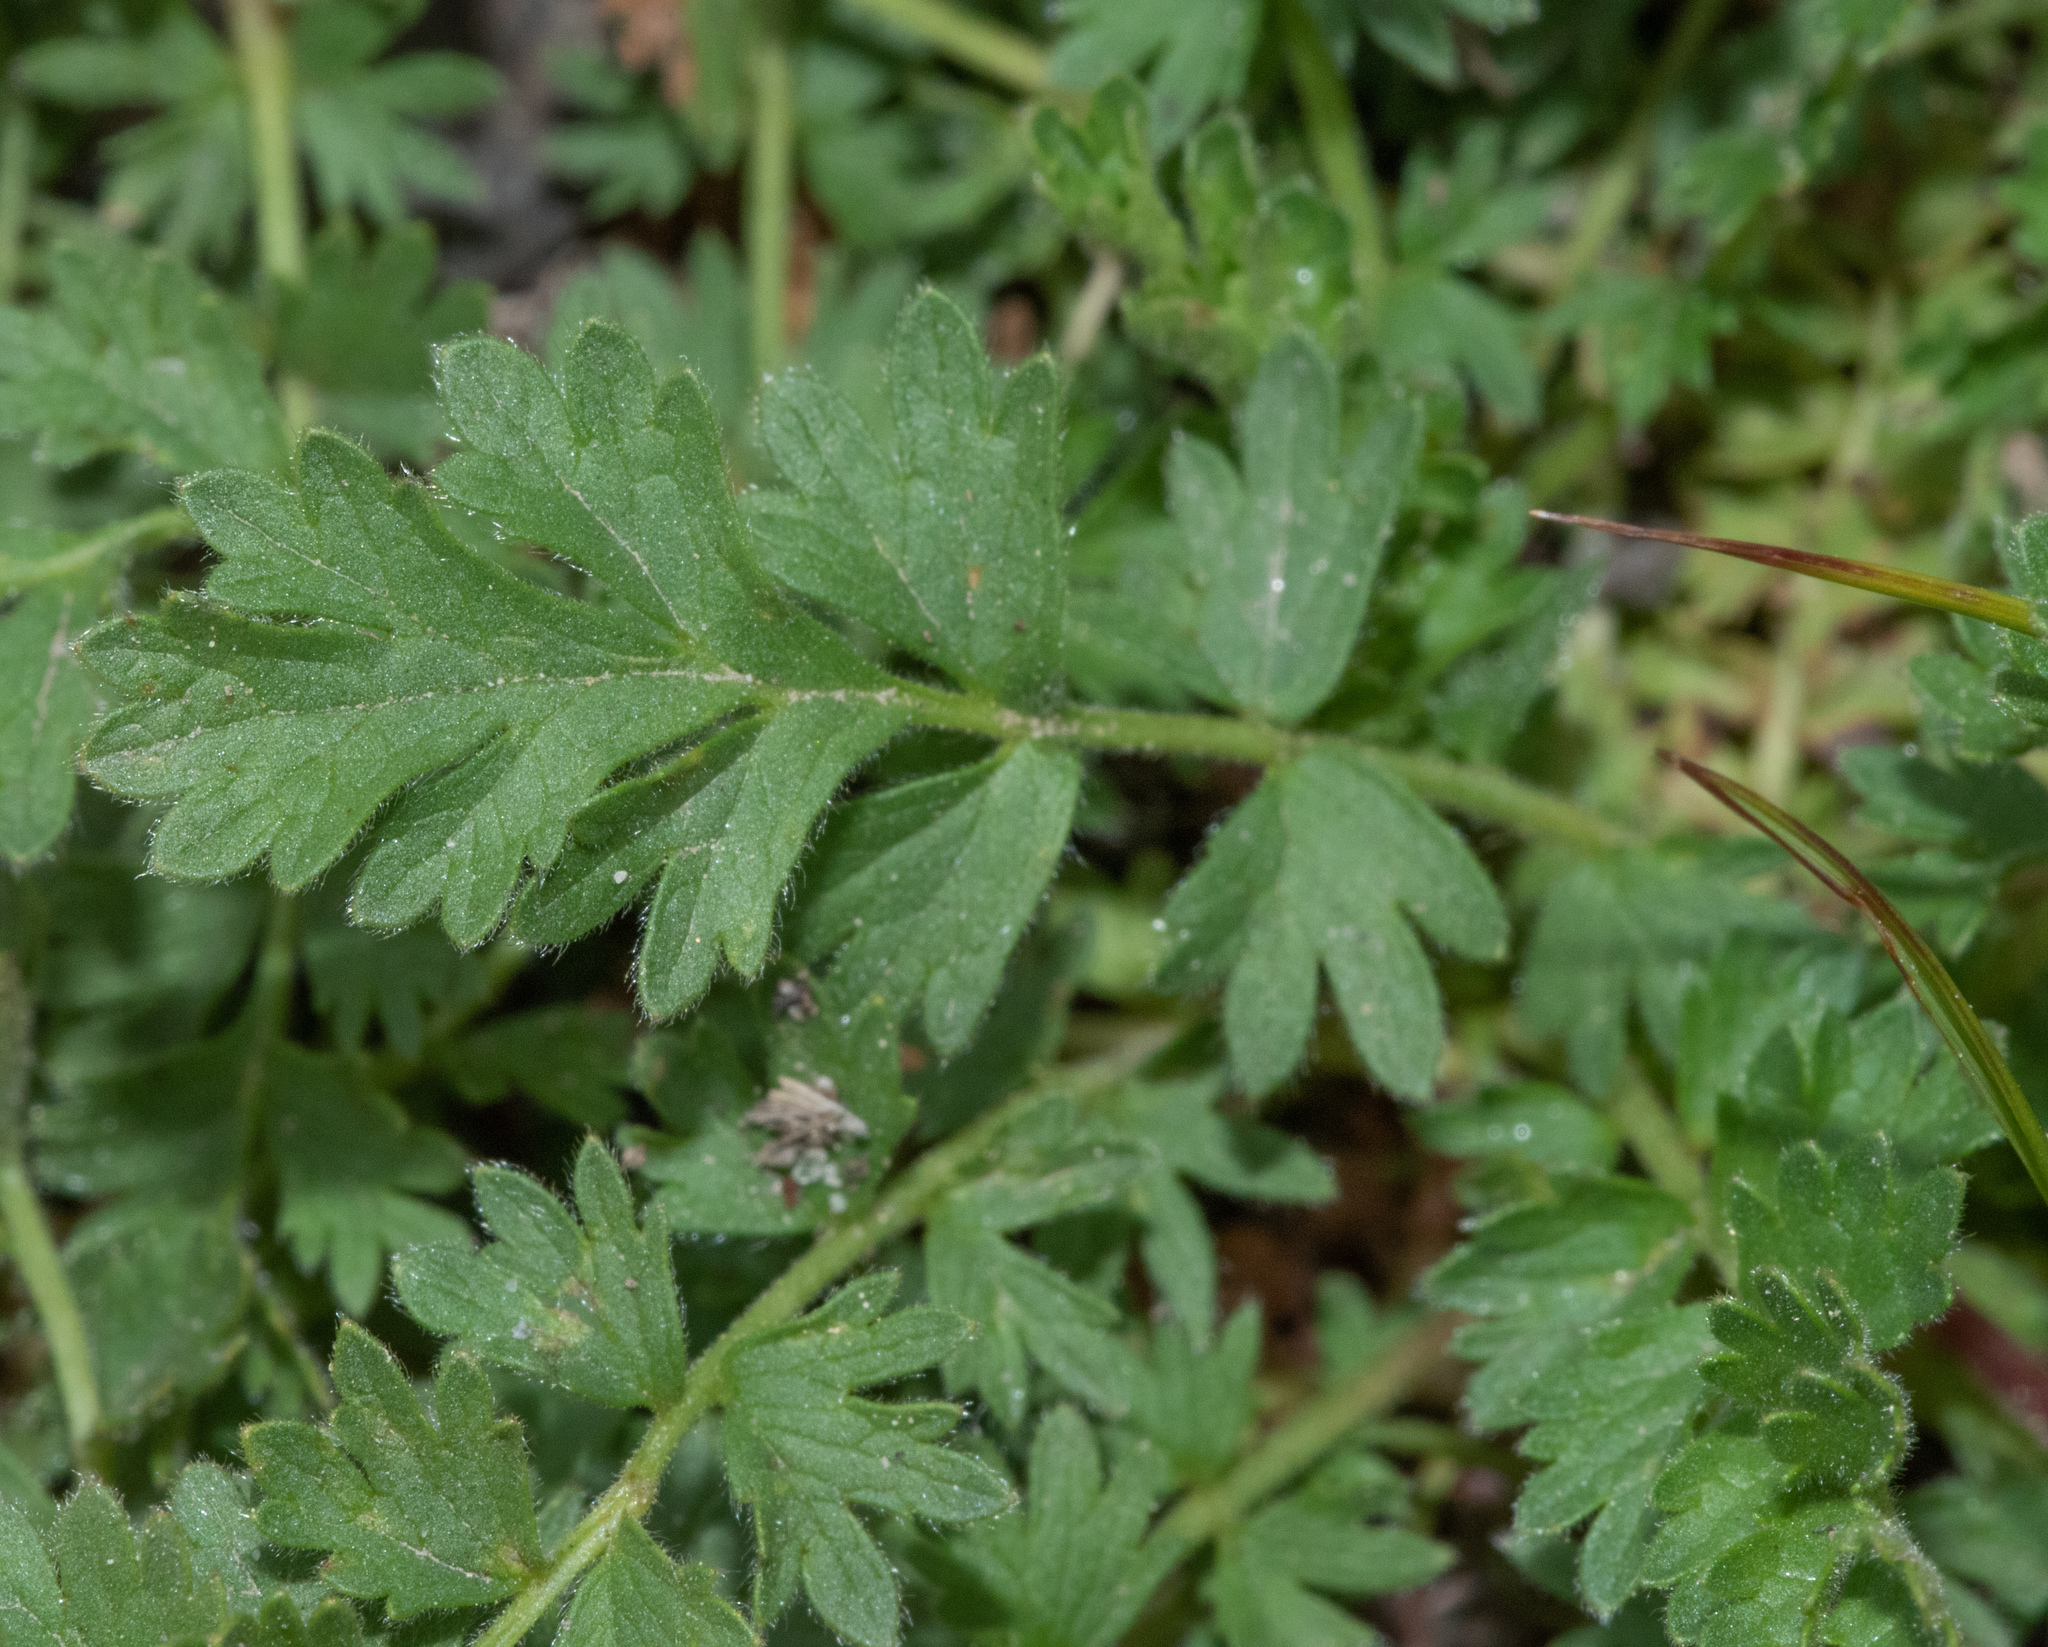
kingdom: Plantae
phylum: Tracheophyta
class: Magnoliopsida
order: Rosales
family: Rosaceae
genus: Potentilla
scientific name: Potentilla douglasii
